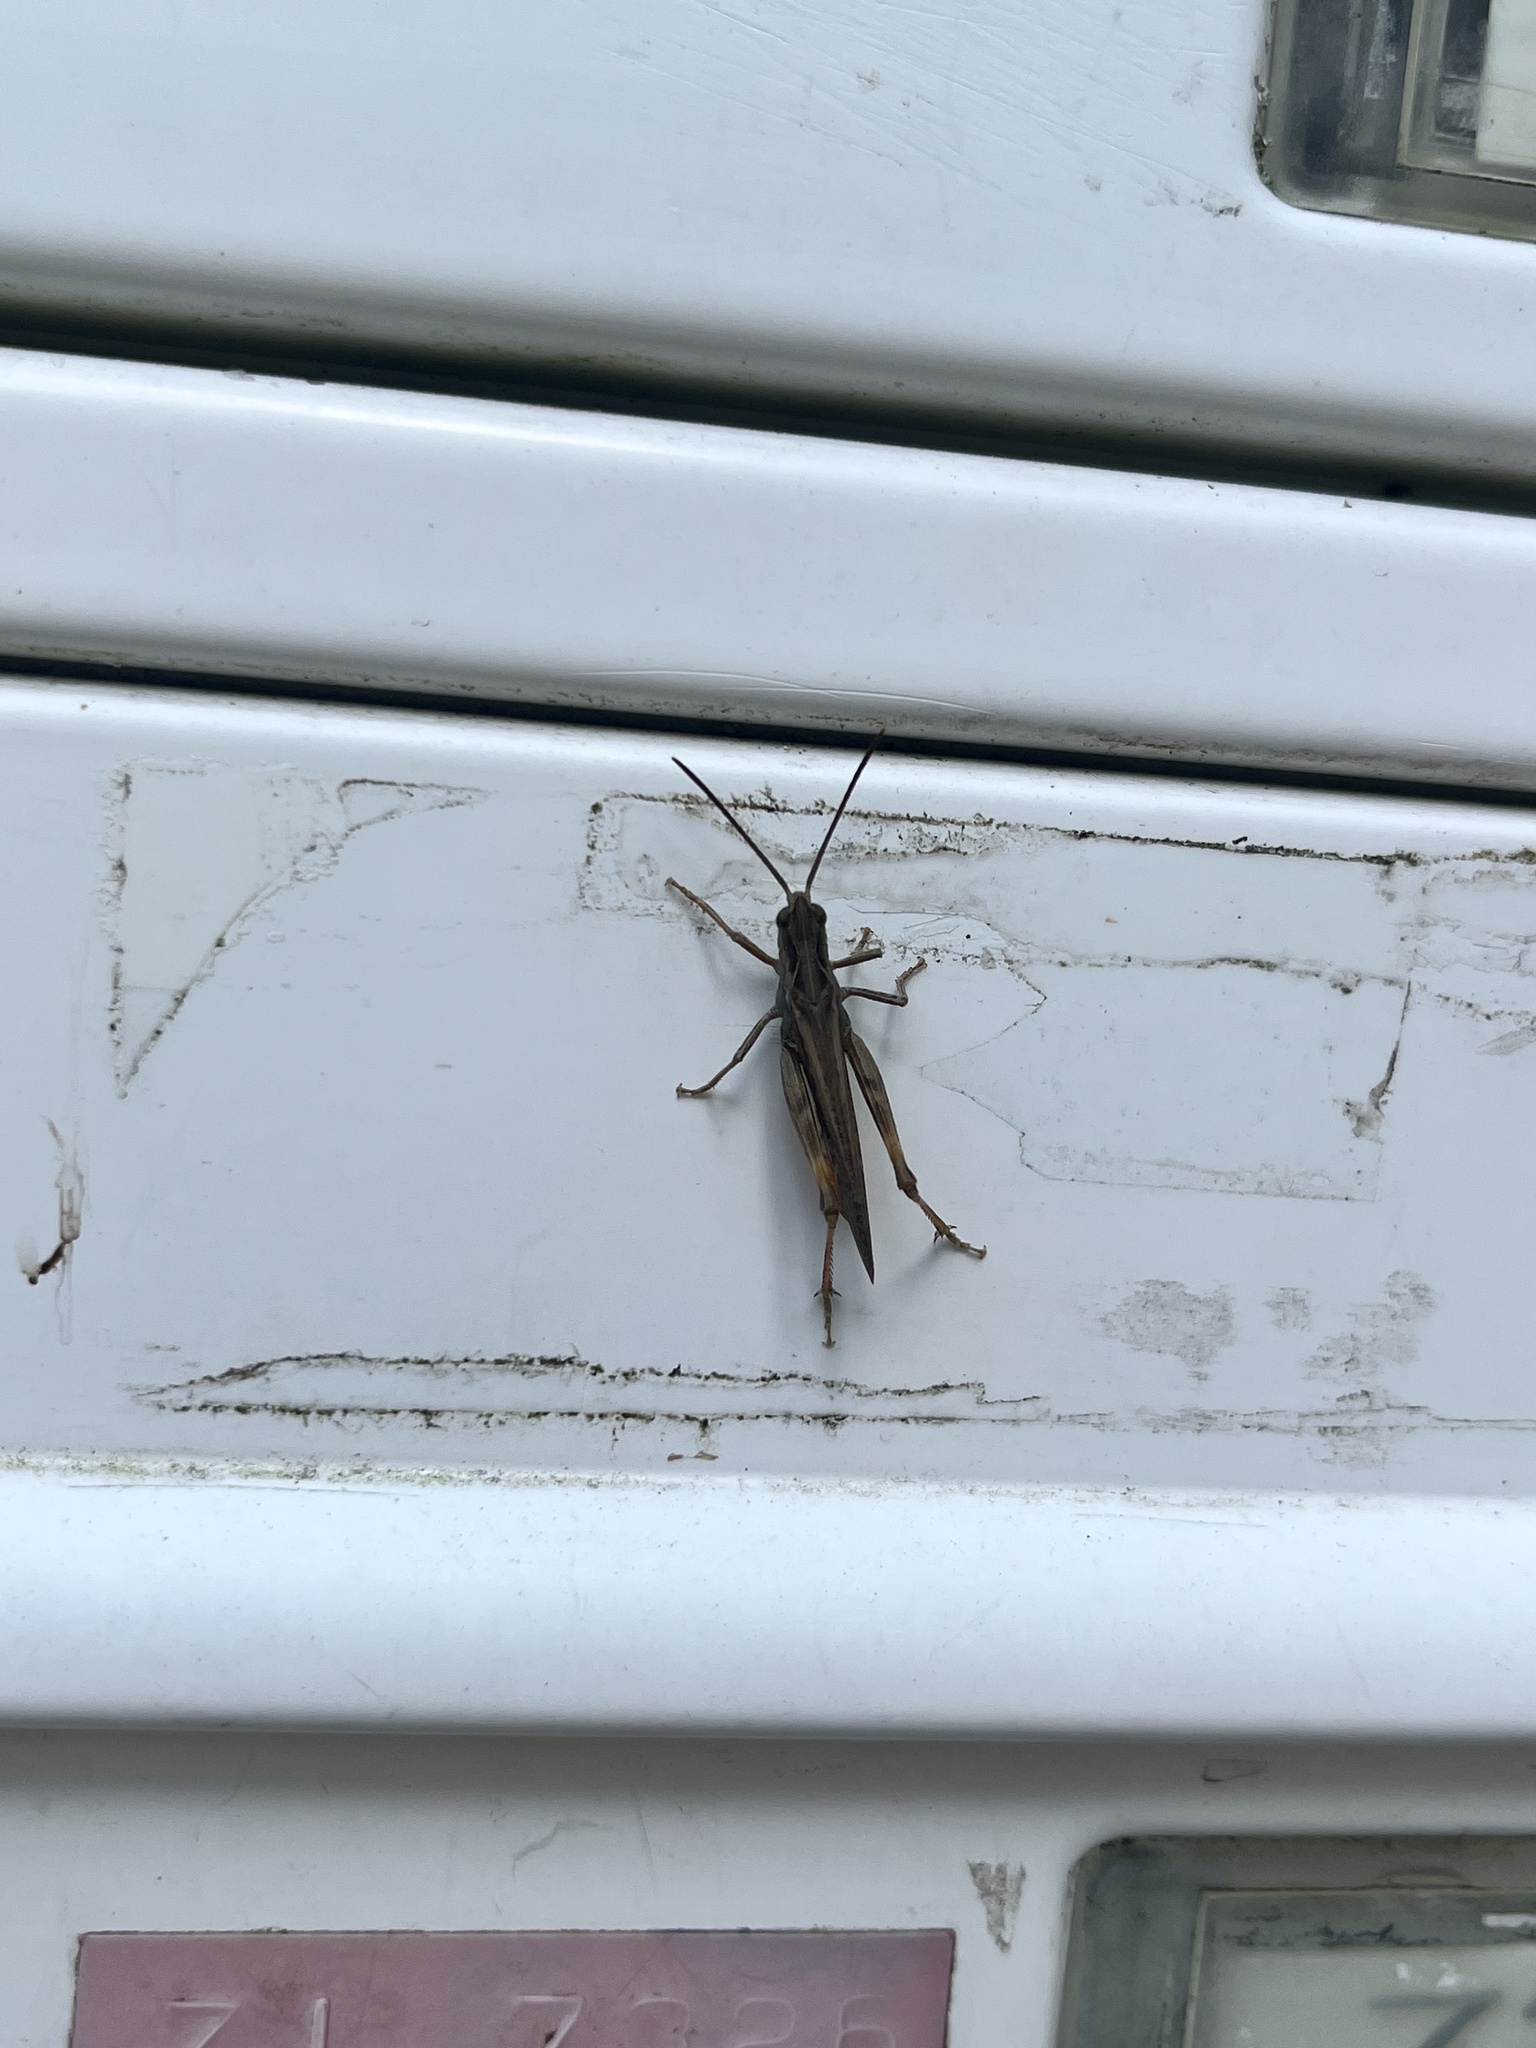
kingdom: Animalia
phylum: Arthropoda
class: Insecta
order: Orthoptera
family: Acrididae
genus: Chorthippus
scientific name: Chorthippus brunneus
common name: Field grasshopper
